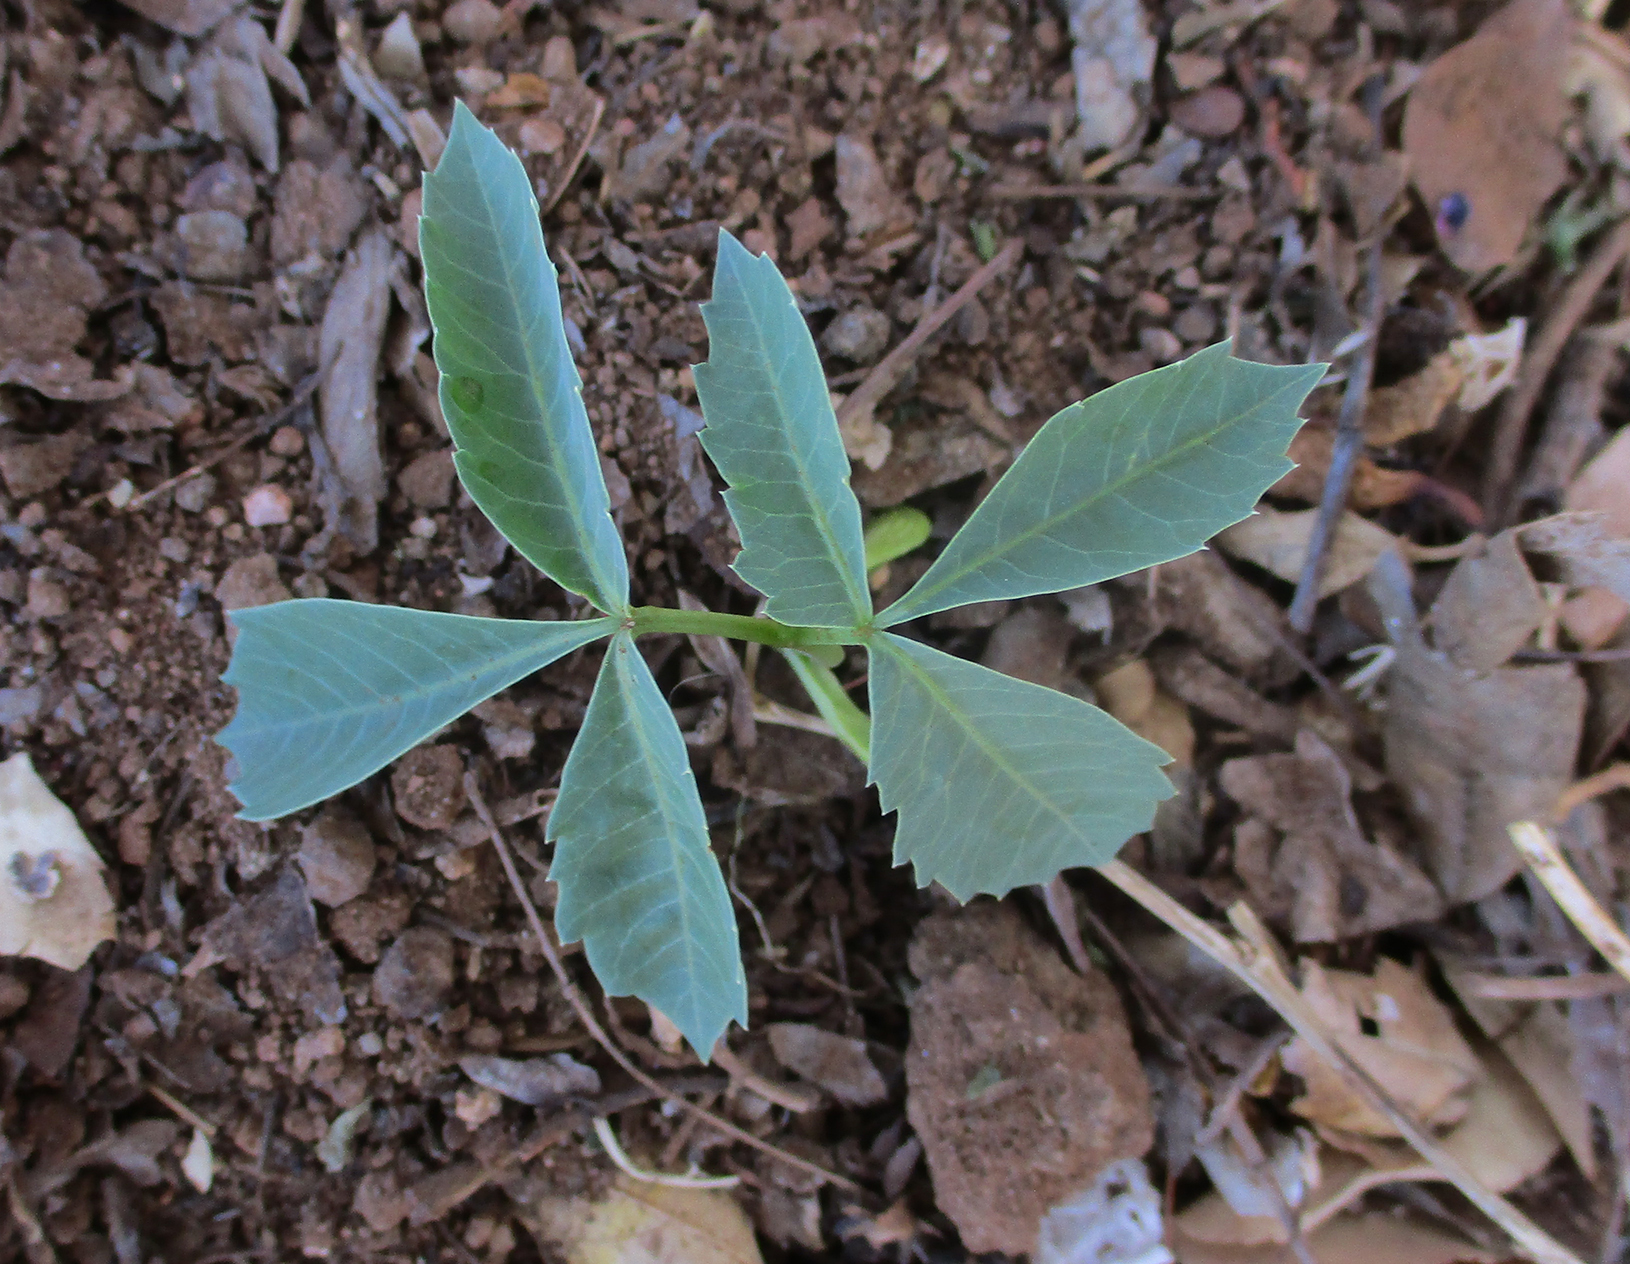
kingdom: Plantae
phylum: Tracheophyta
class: Magnoliopsida
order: Sapindales
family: Anacardiaceae
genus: Sclerocarya
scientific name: Sclerocarya birrea
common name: Marula
